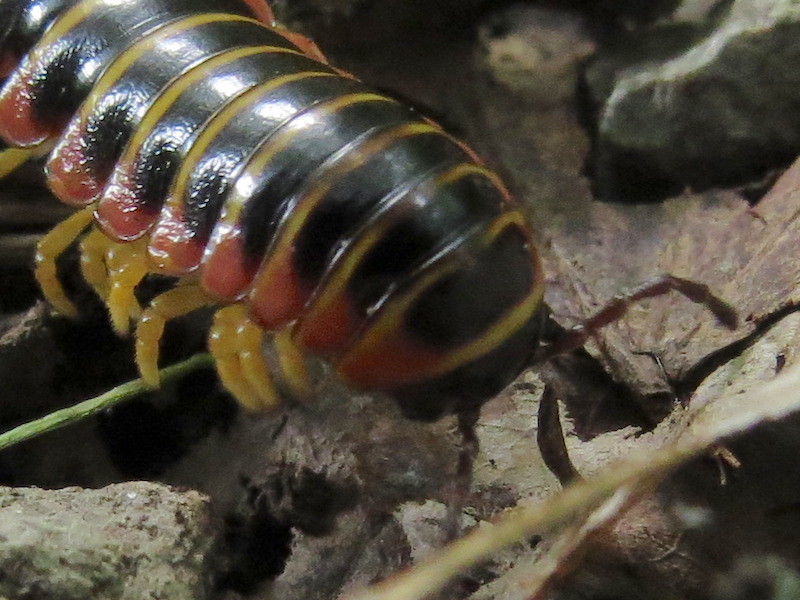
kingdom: Animalia
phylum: Arthropoda
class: Diplopoda
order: Polydesmida
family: Xystodesmidae
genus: Apheloria
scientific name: Apheloria virginiensis
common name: Black-and-gold flat millipede
